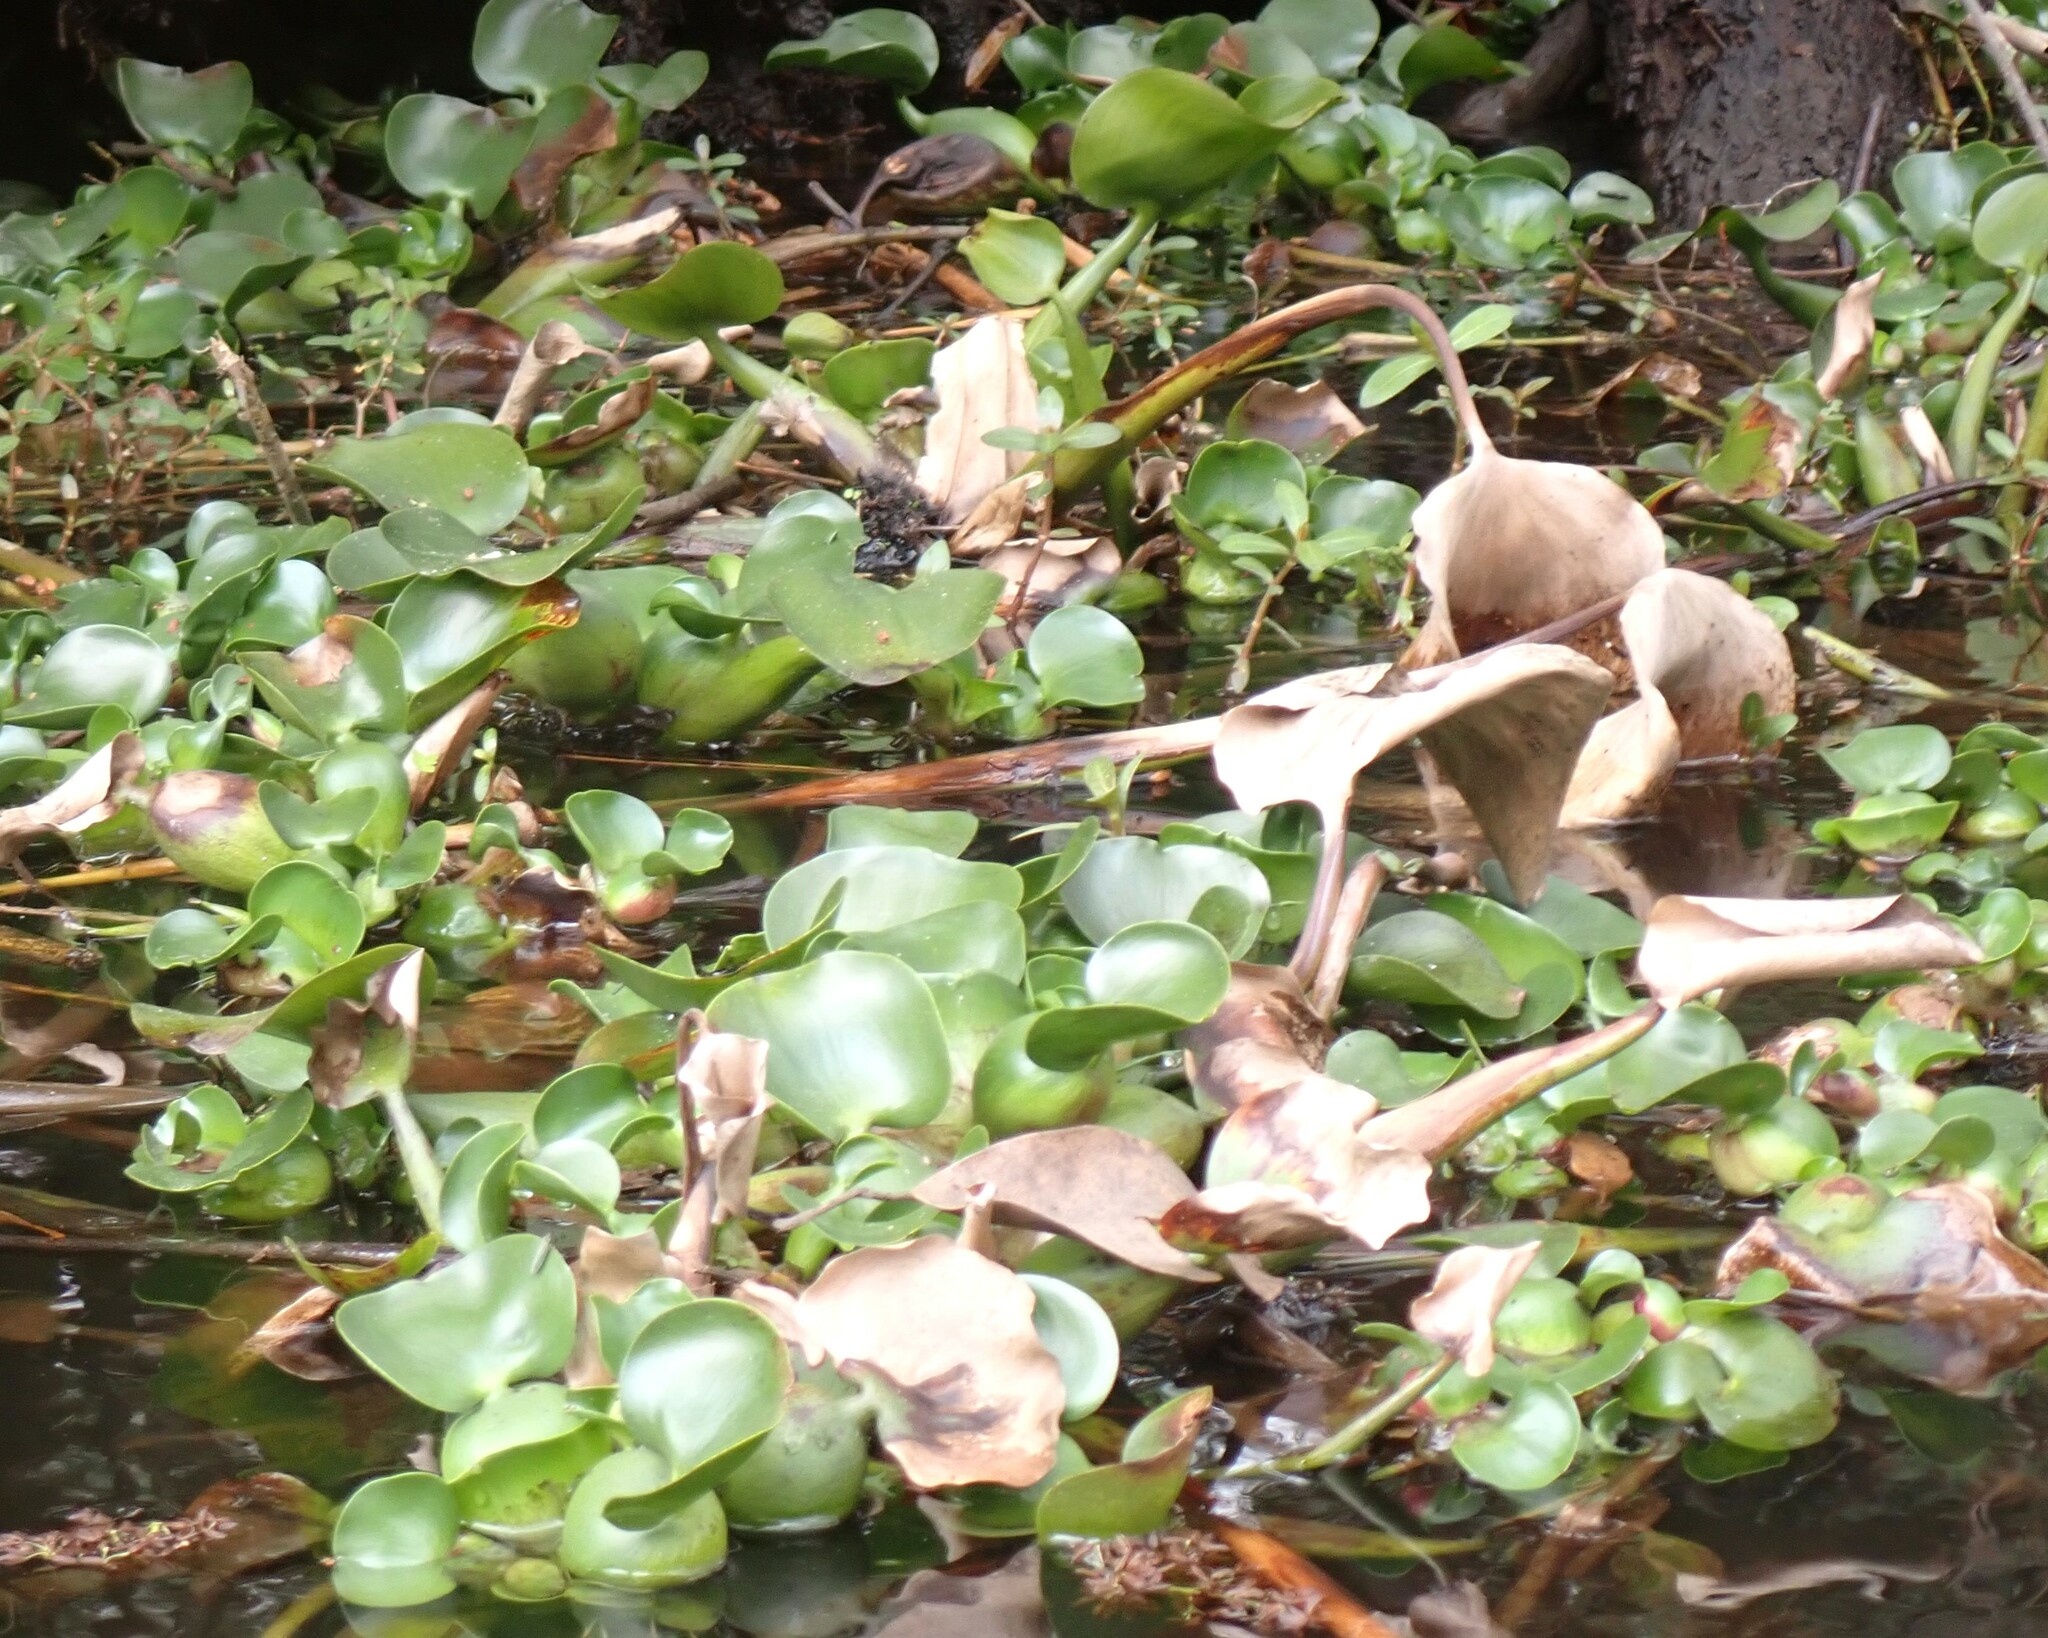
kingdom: Plantae
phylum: Tracheophyta
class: Liliopsida
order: Commelinales
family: Pontederiaceae
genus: Pontederia
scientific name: Pontederia crassipes
